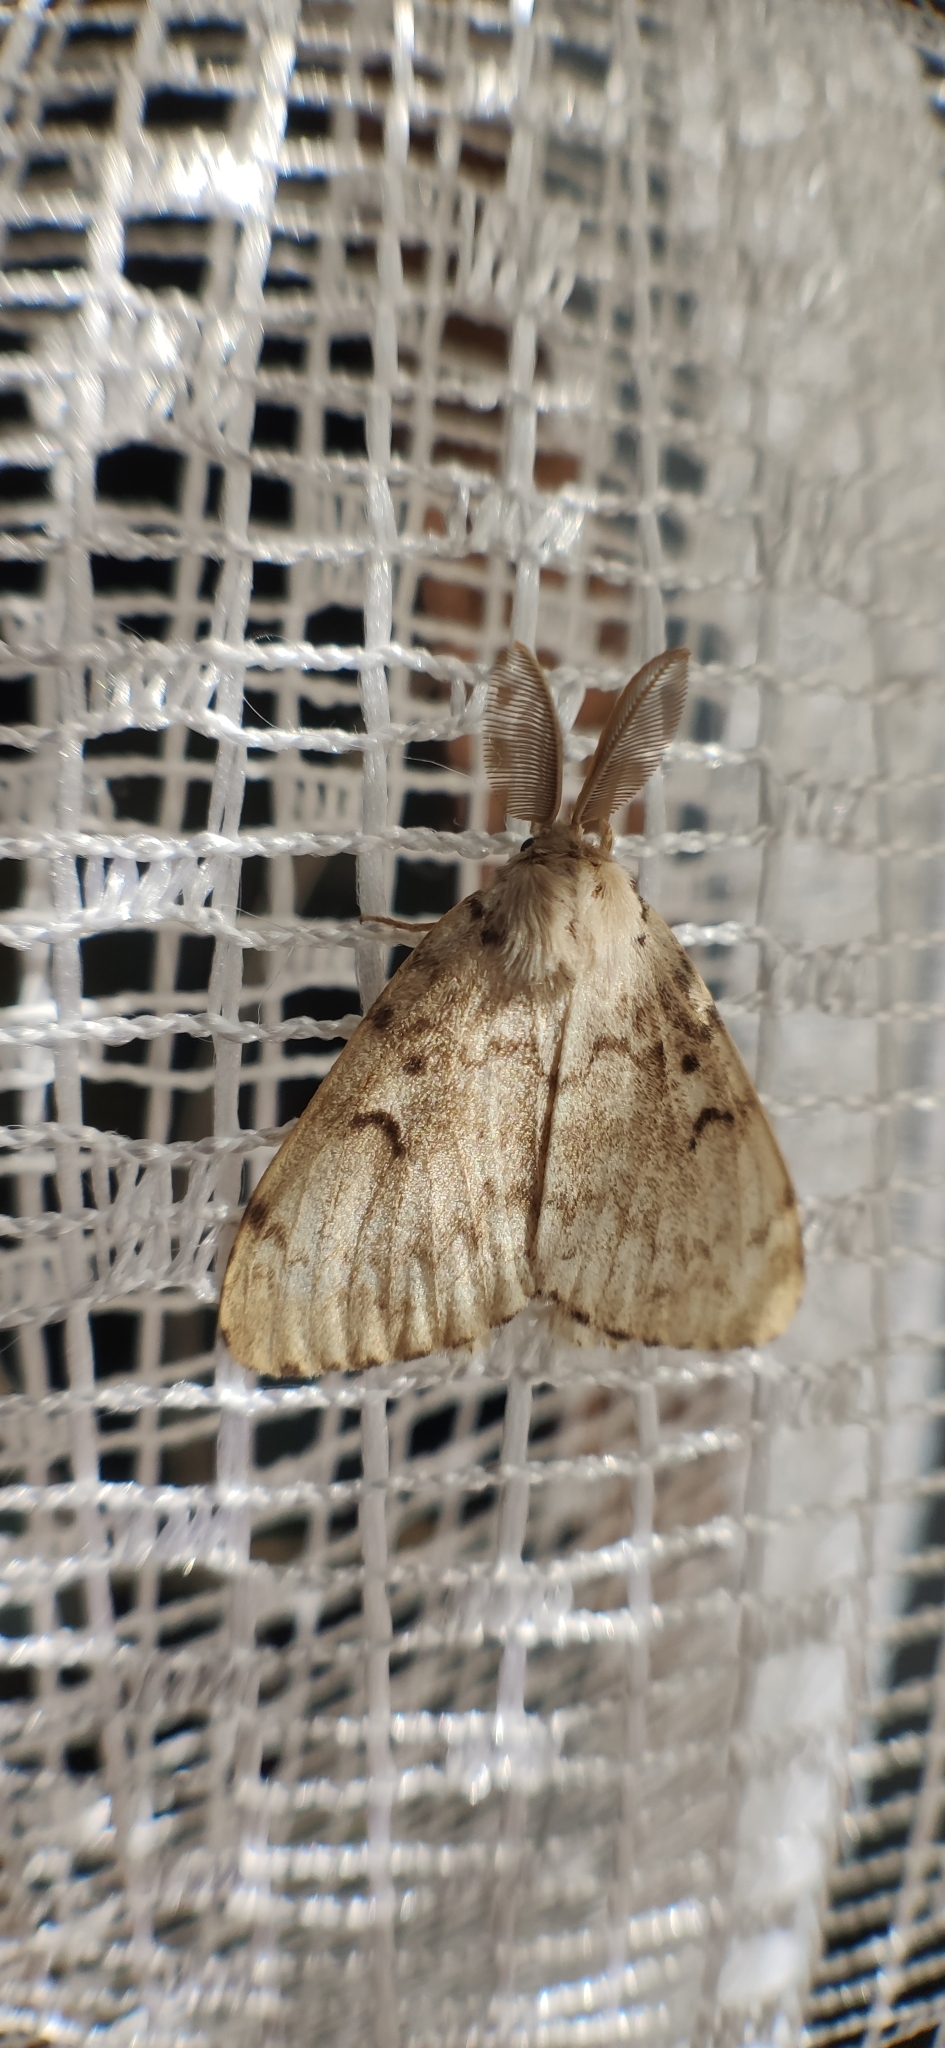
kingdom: Animalia
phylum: Arthropoda
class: Insecta
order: Lepidoptera
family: Erebidae
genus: Lymantria
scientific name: Lymantria dispar
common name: Gypsy moth
